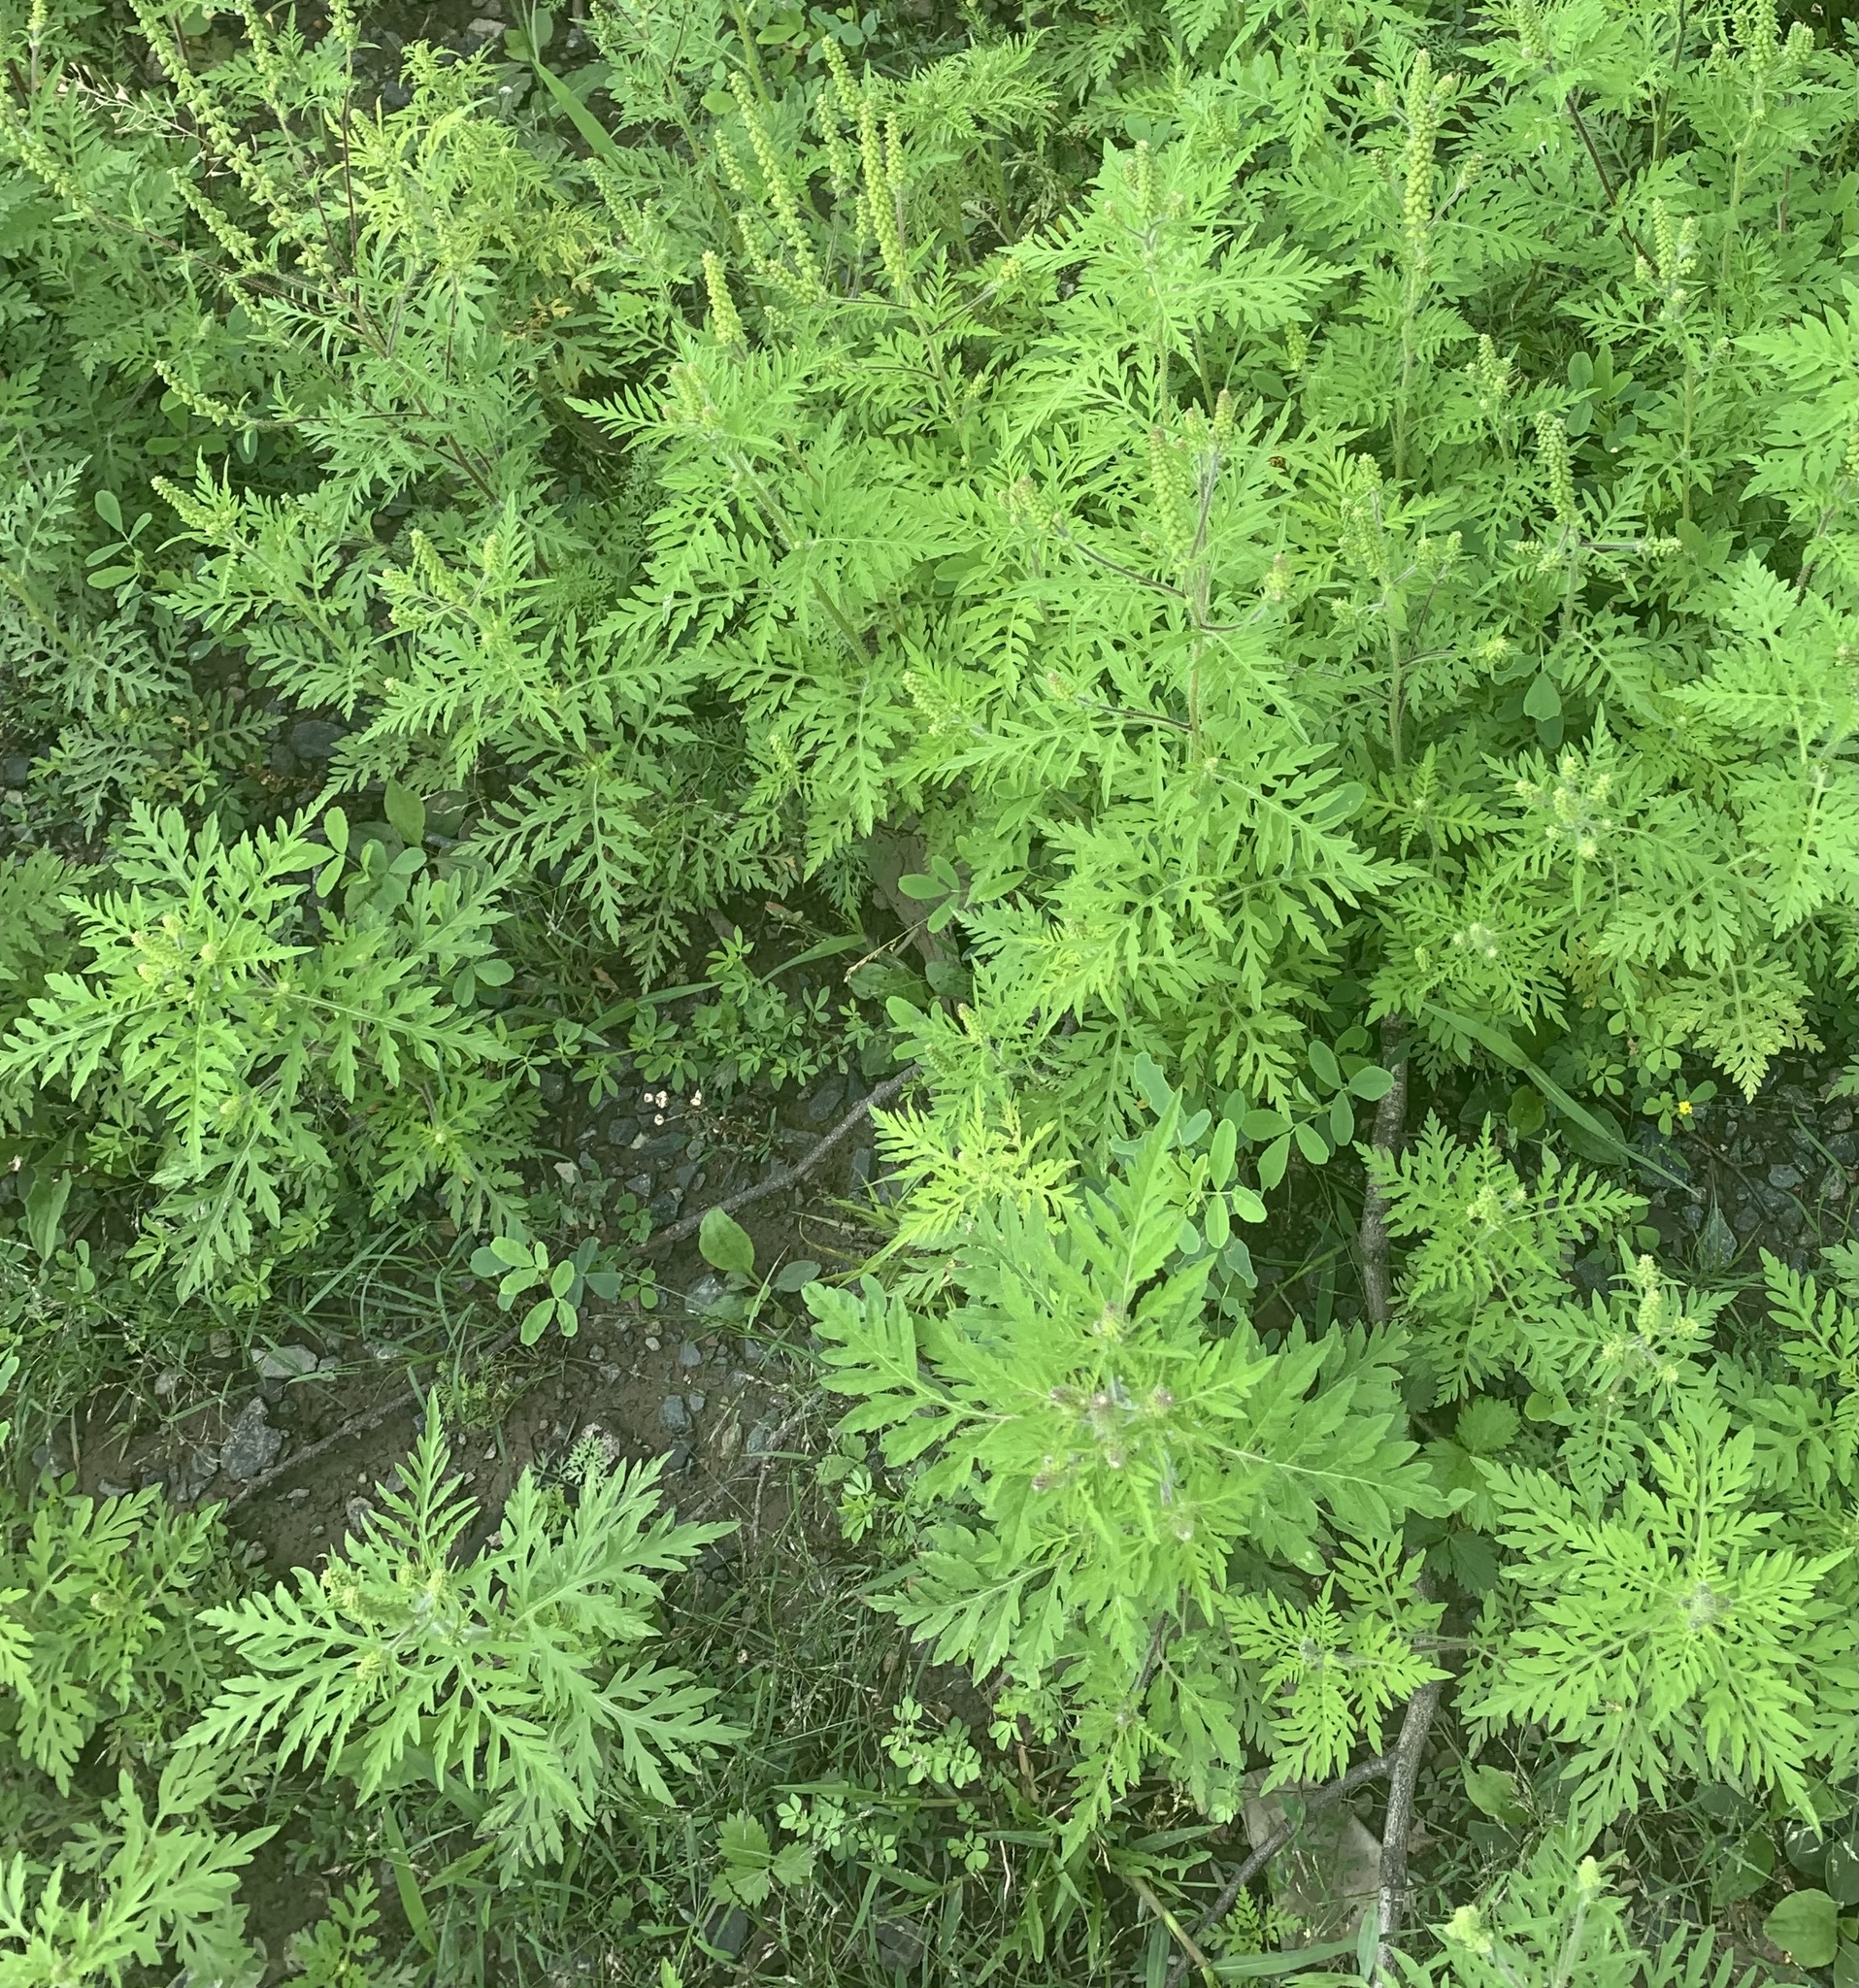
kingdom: Plantae
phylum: Tracheophyta
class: Magnoliopsida
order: Asterales
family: Asteraceae
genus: Ambrosia
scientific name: Ambrosia artemisiifolia
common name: Annual ragweed
